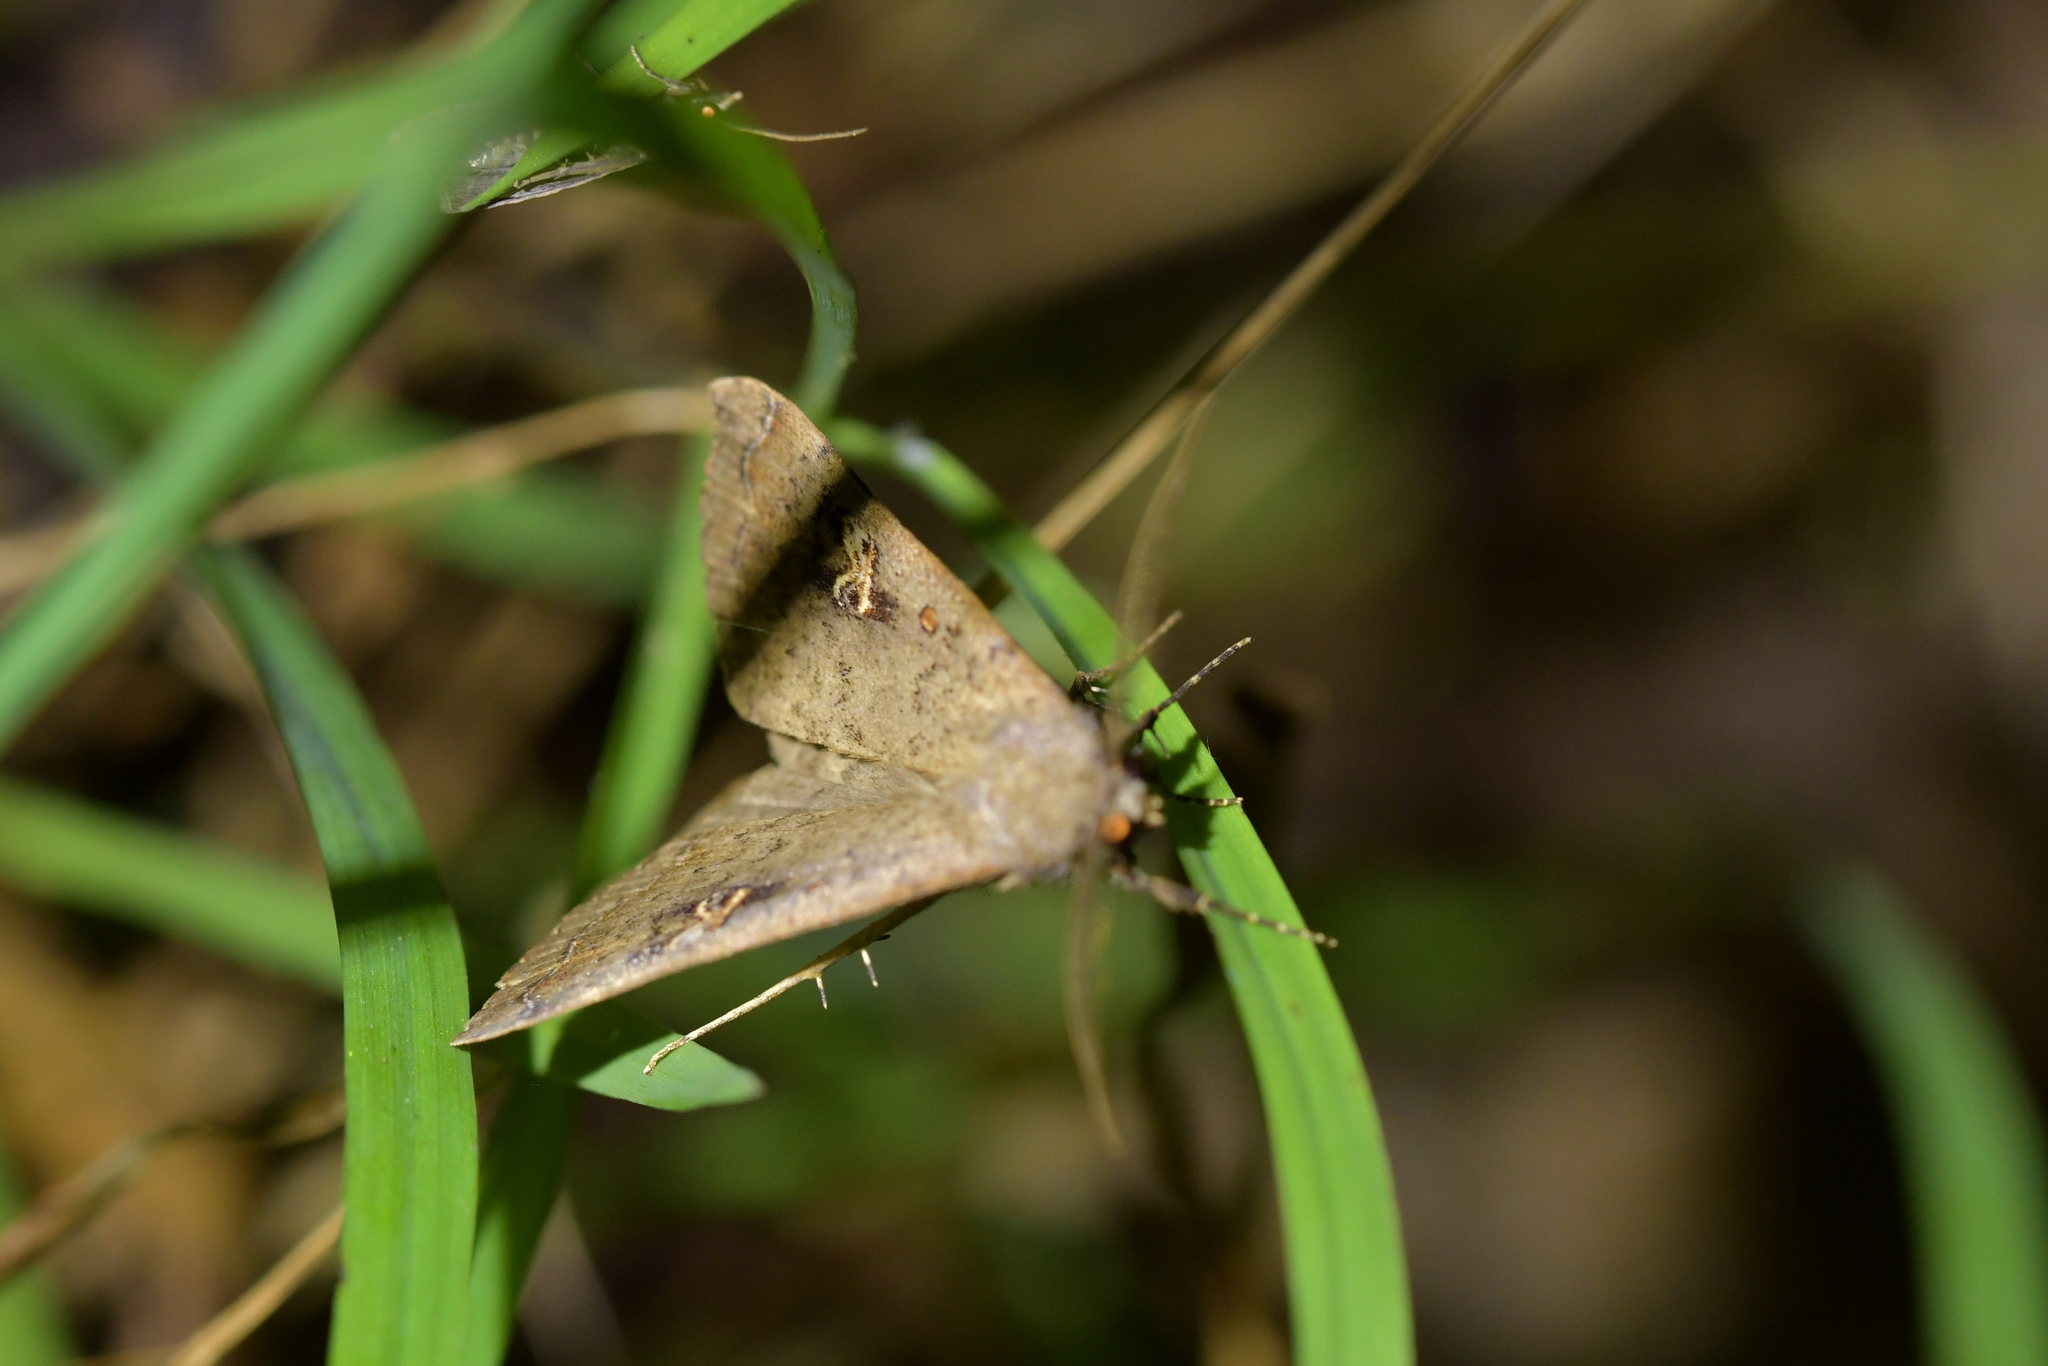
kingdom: Animalia
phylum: Arthropoda
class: Insecta
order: Lepidoptera
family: Erebidae
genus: Rhapsa
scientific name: Rhapsa scotosialis
